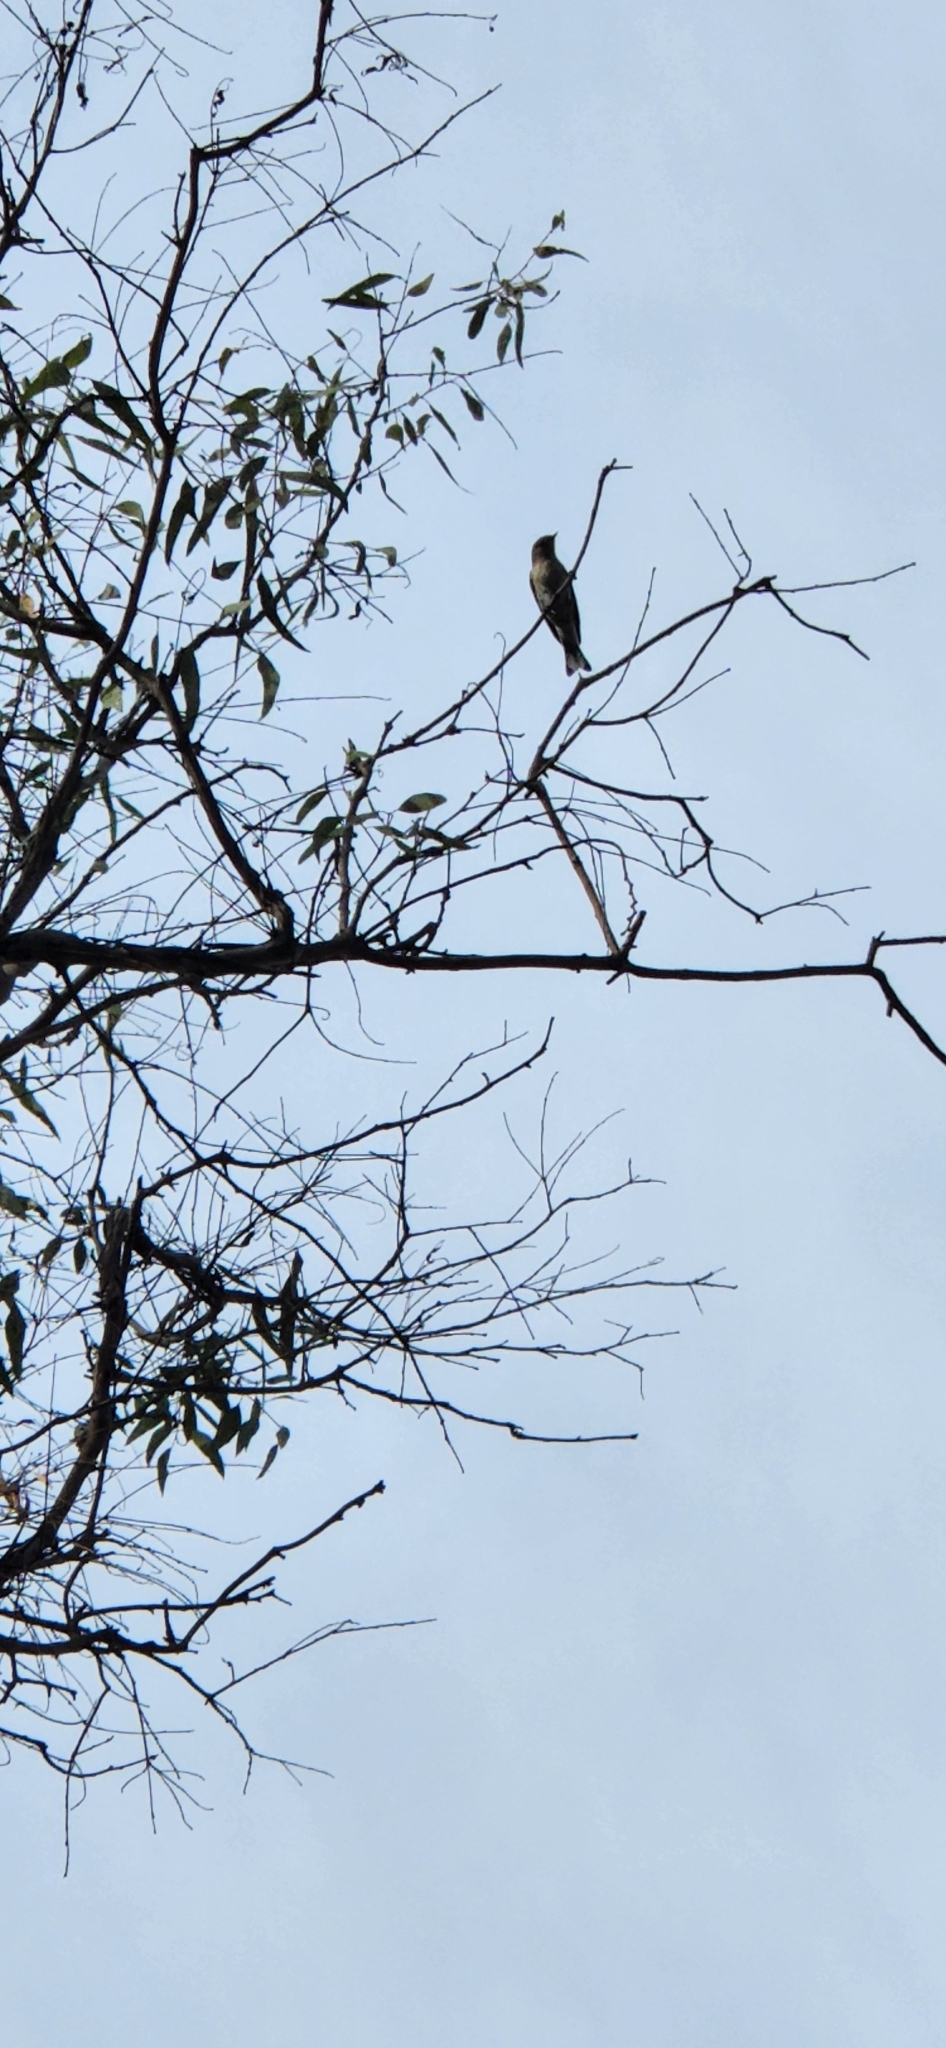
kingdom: Animalia
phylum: Chordata
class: Aves
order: Passeriformes
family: Parulidae
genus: Setophaga
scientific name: Setophaga coronata
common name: Myrtle warbler
